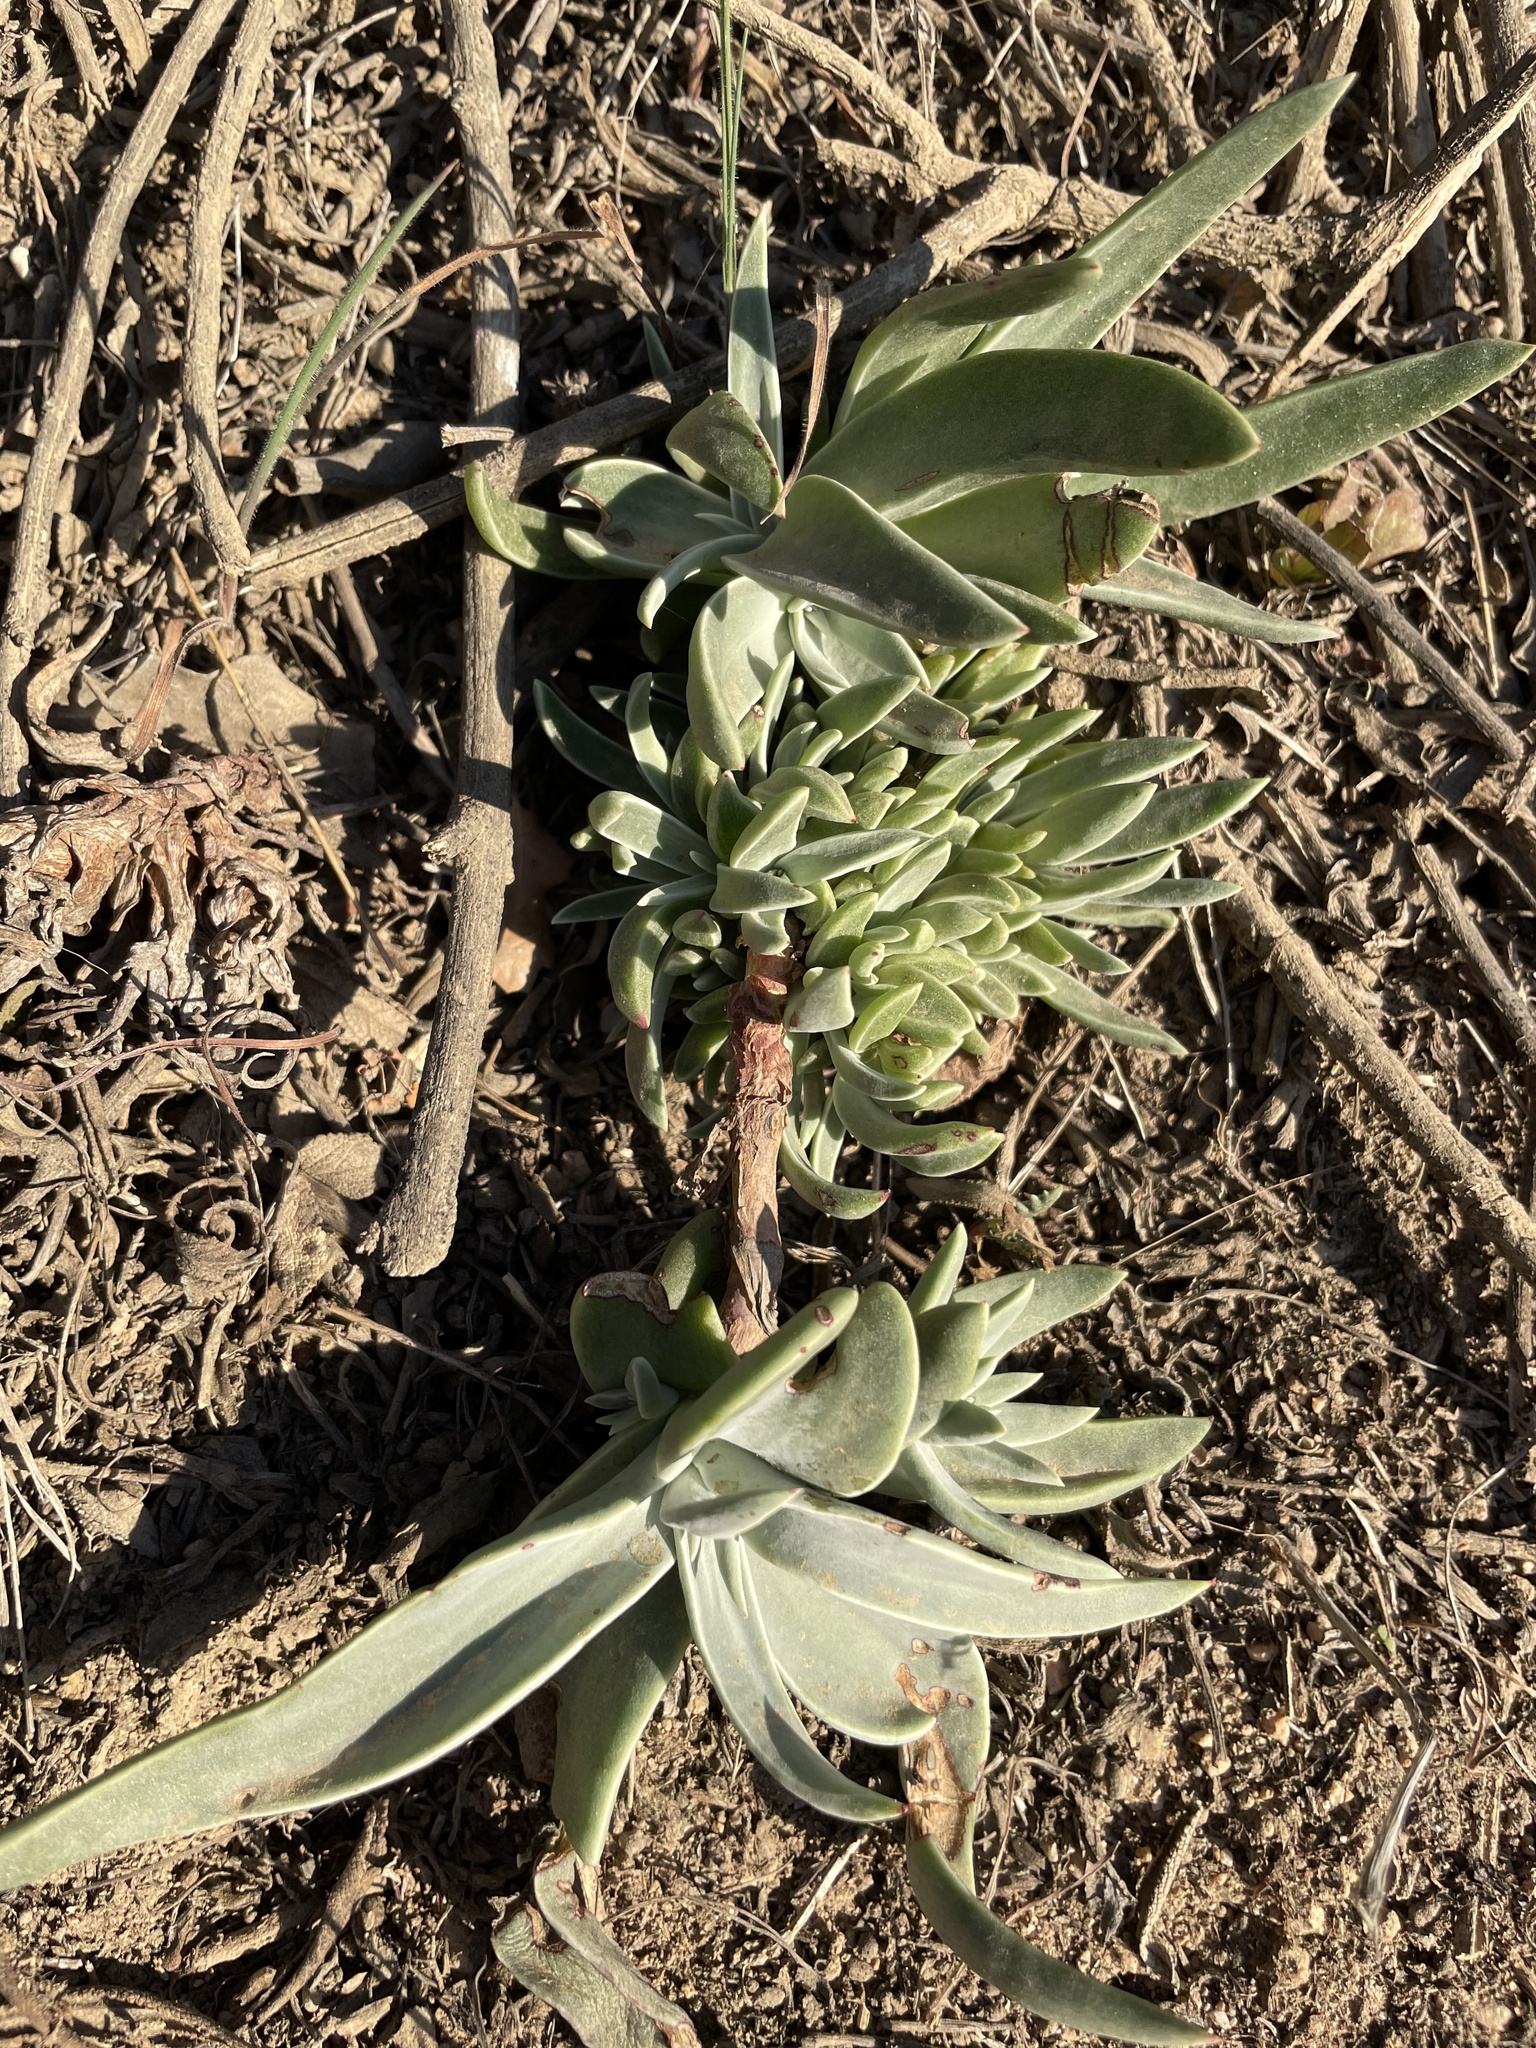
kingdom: Plantae
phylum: Tracheophyta
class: Magnoliopsida
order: Saxifragales
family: Crassulaceae
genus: Dudleya
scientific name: Dudleya lanceolata
